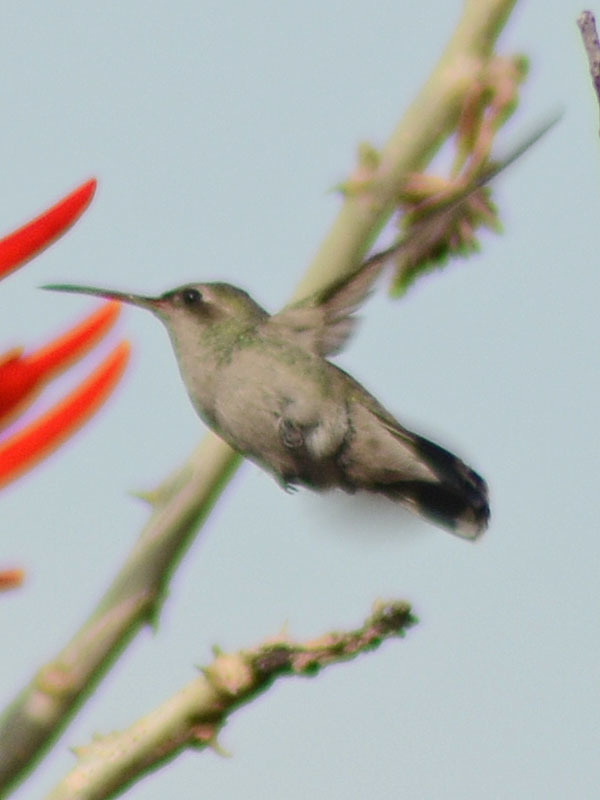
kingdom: Animalia
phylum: Chordata
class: Aves
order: Apodiformes
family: Trochilidae
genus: Cynanthus
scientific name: Cynanthus latirostris
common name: Broad-billed hummingbird
